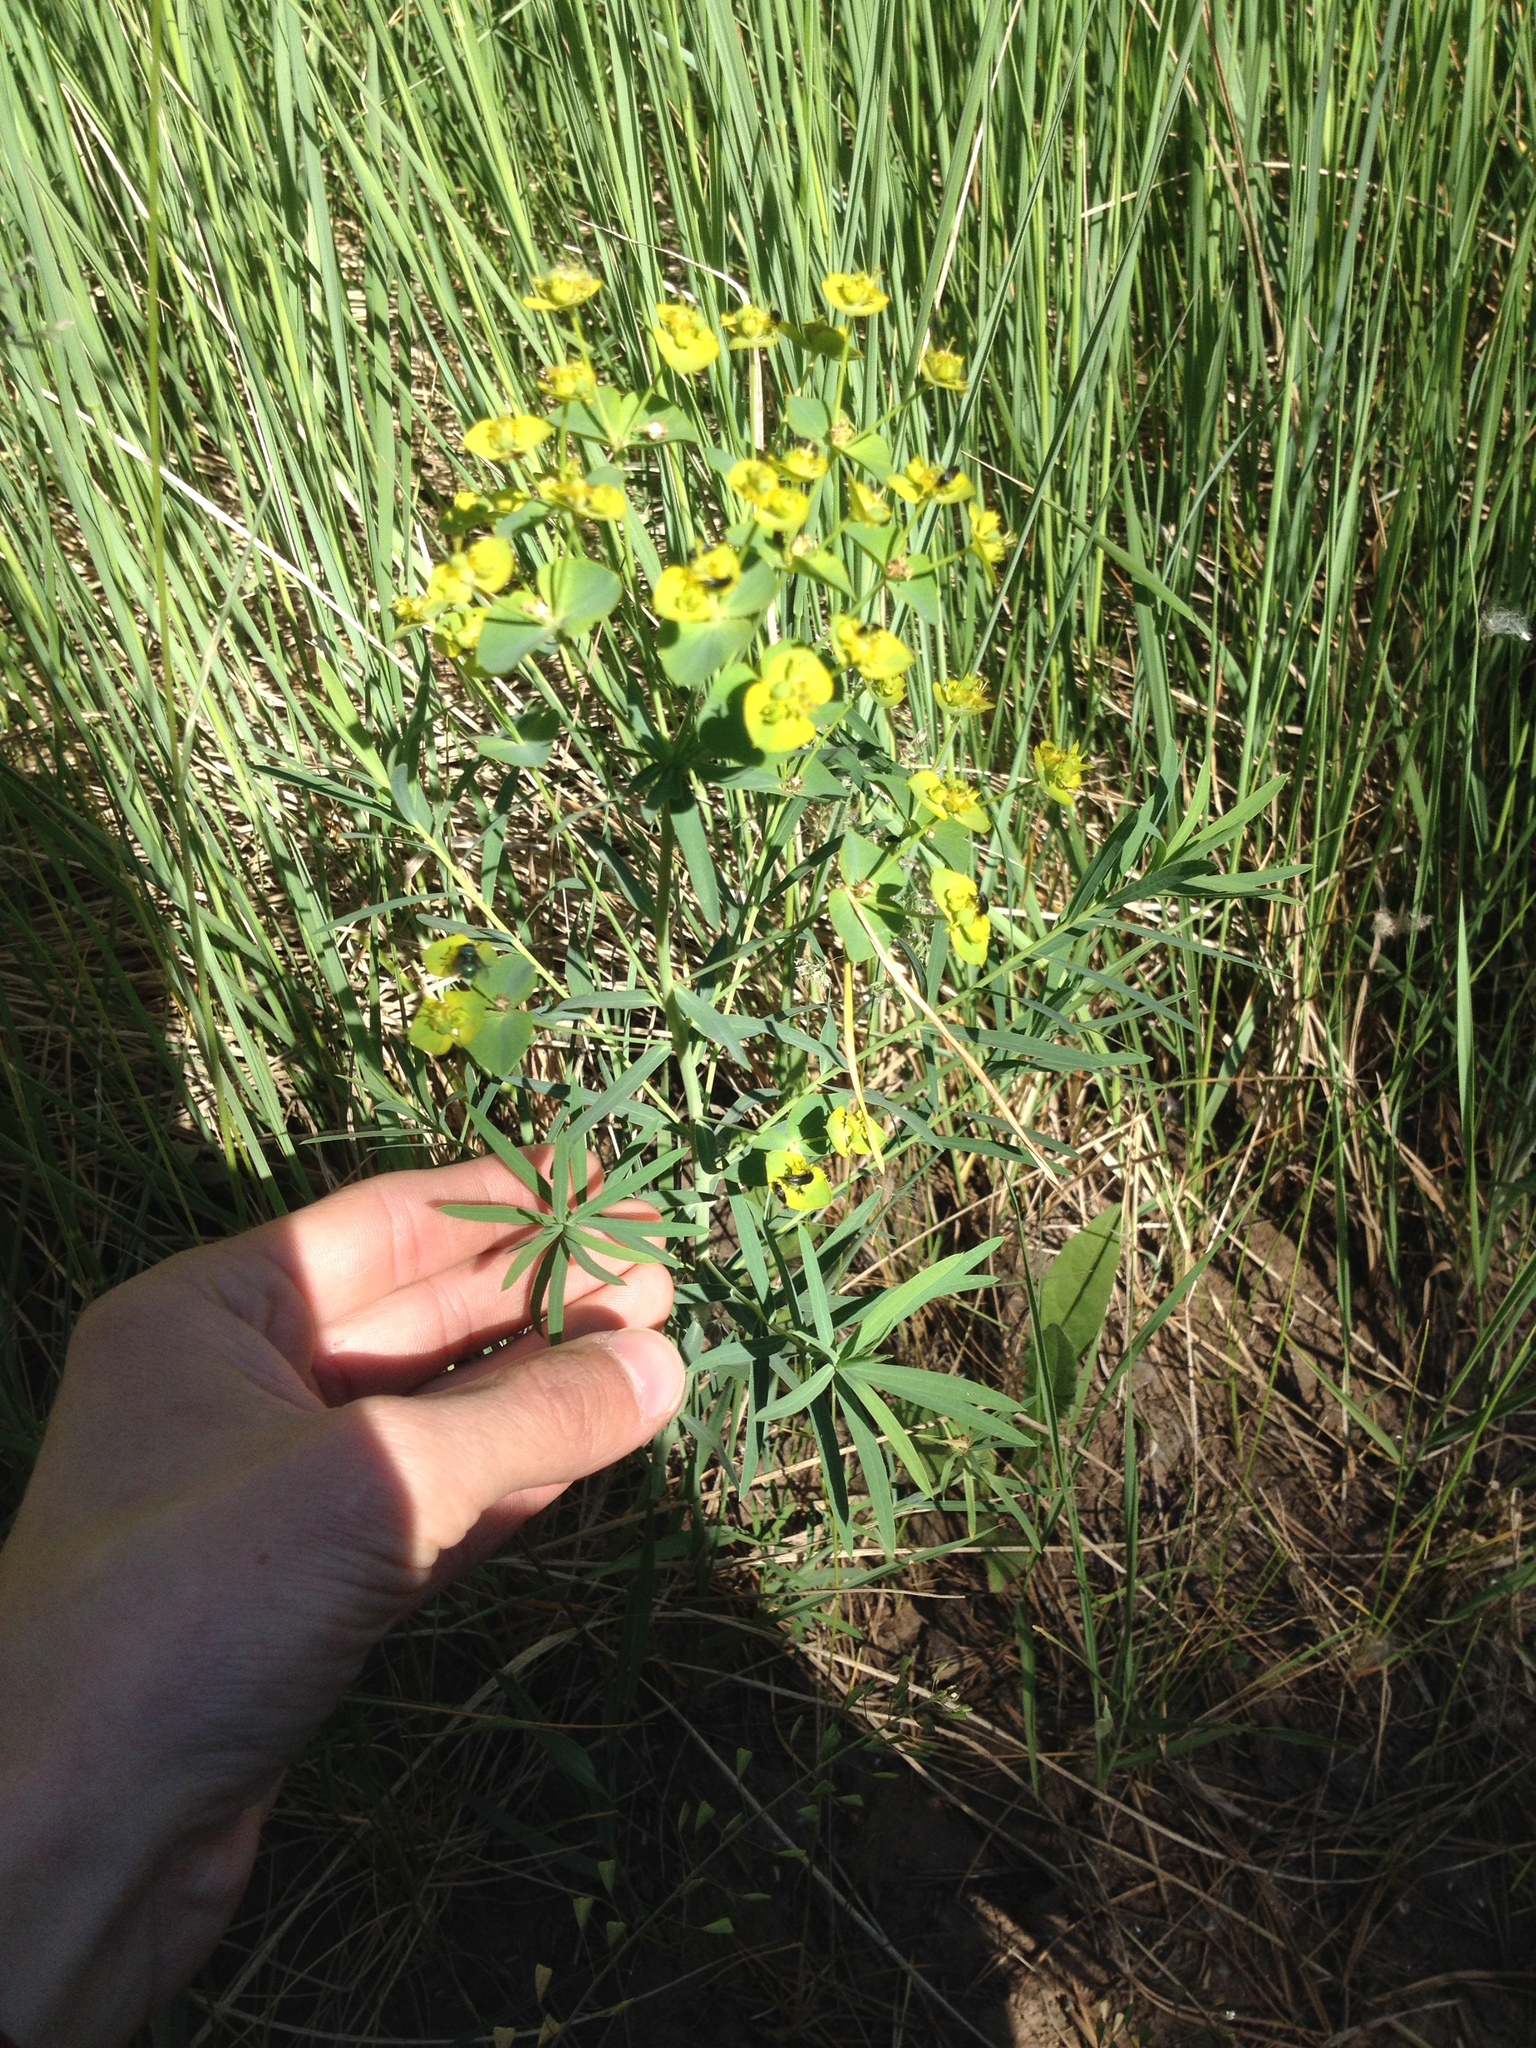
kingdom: Plantae
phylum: Tracheophyta
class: Magnoliopsida
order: Malpighiales
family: Euphorbiaceae
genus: Euphorbia
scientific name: Euphorbia virgata
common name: Leafy spurge
